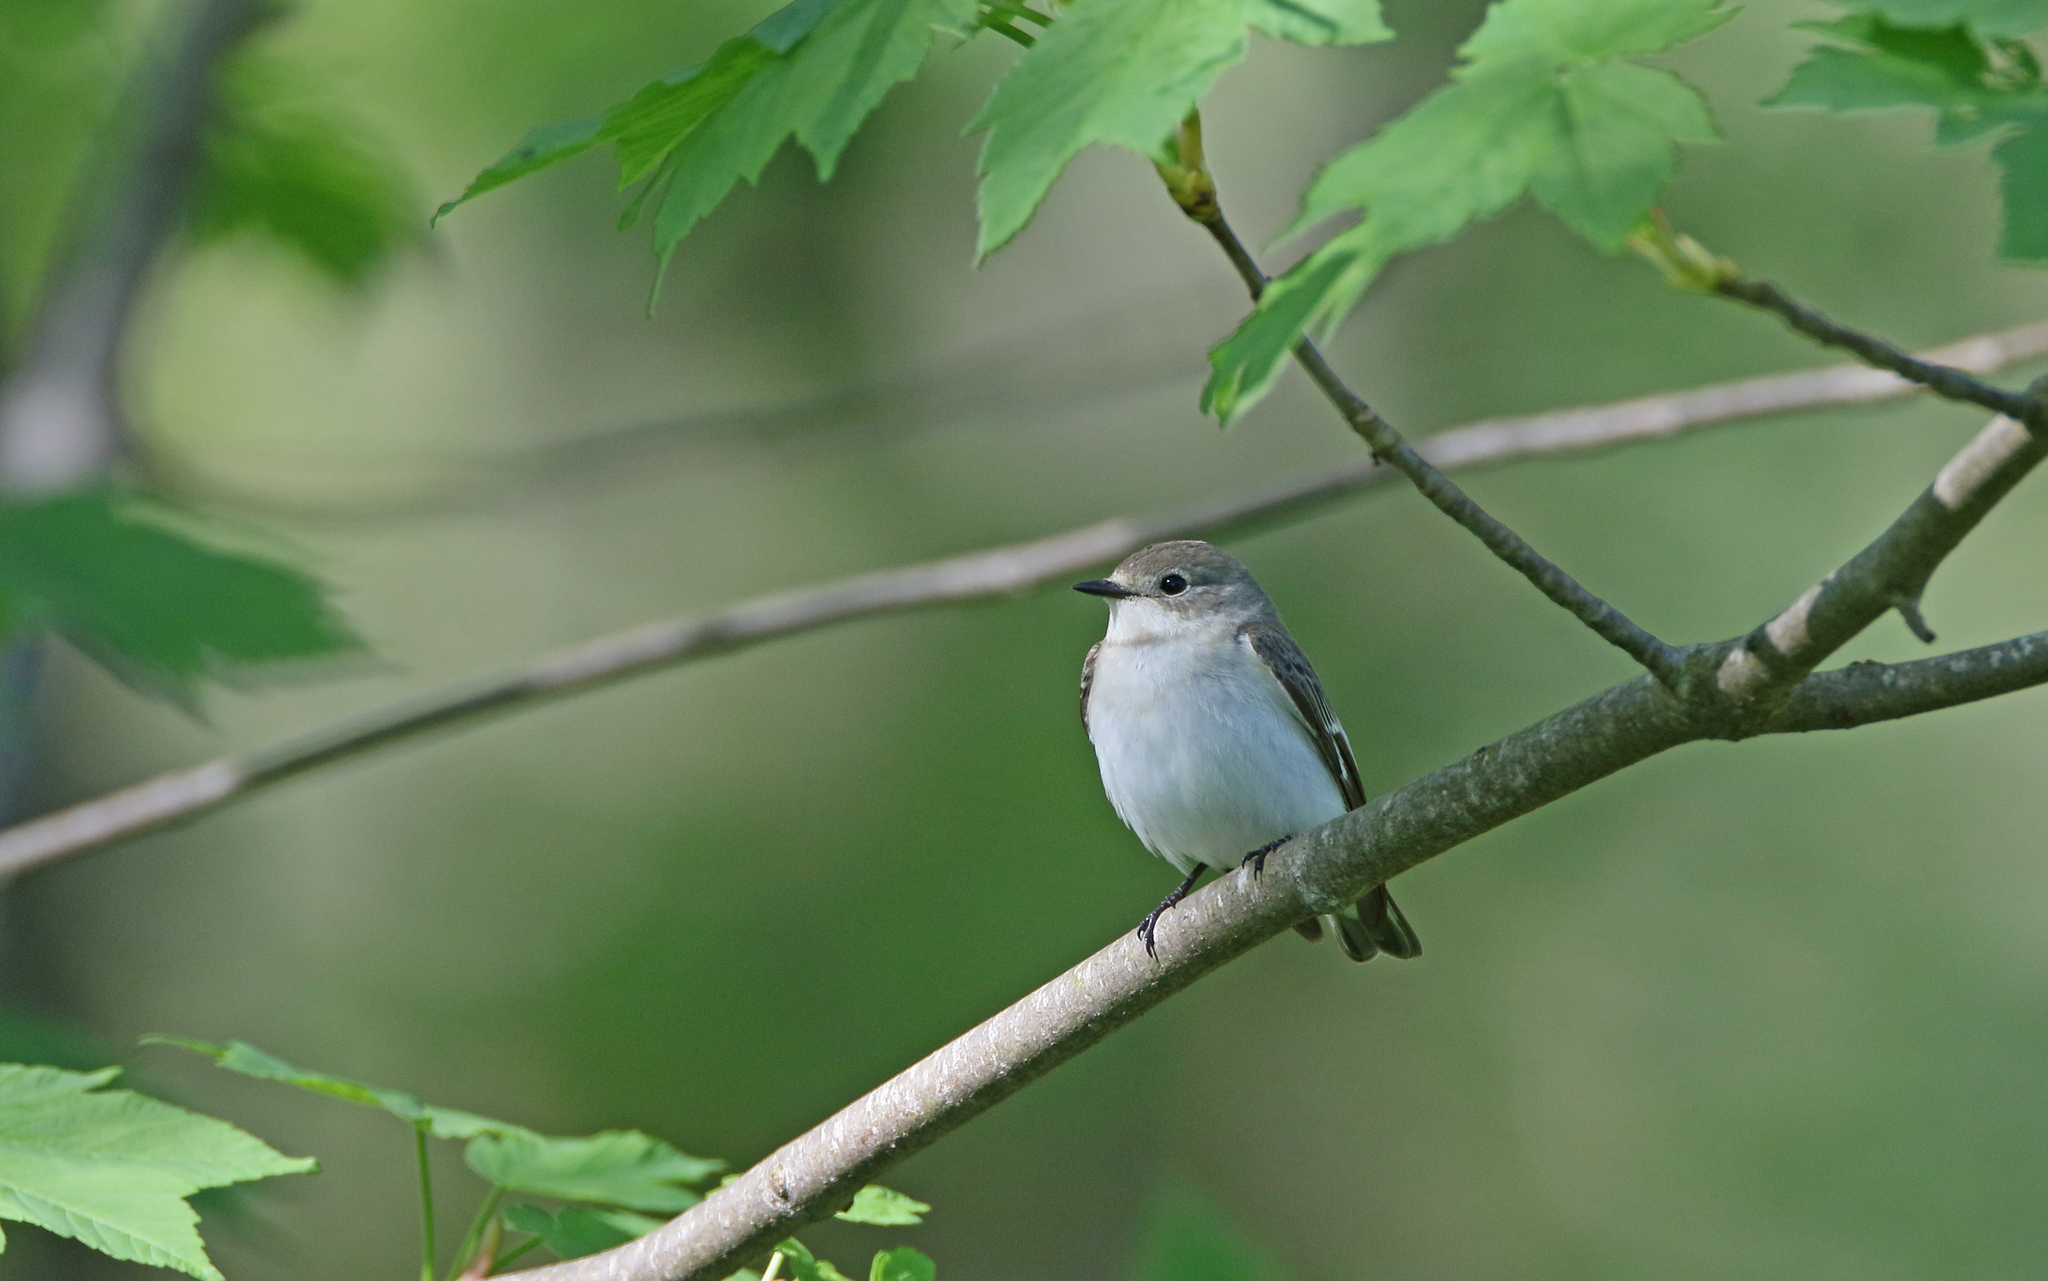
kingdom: Animalia
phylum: Chordata
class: Aves
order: Passeriformes
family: Muscicapidae
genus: Ficedula
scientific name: Ficedula albicollis
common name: Collared flycatcher
